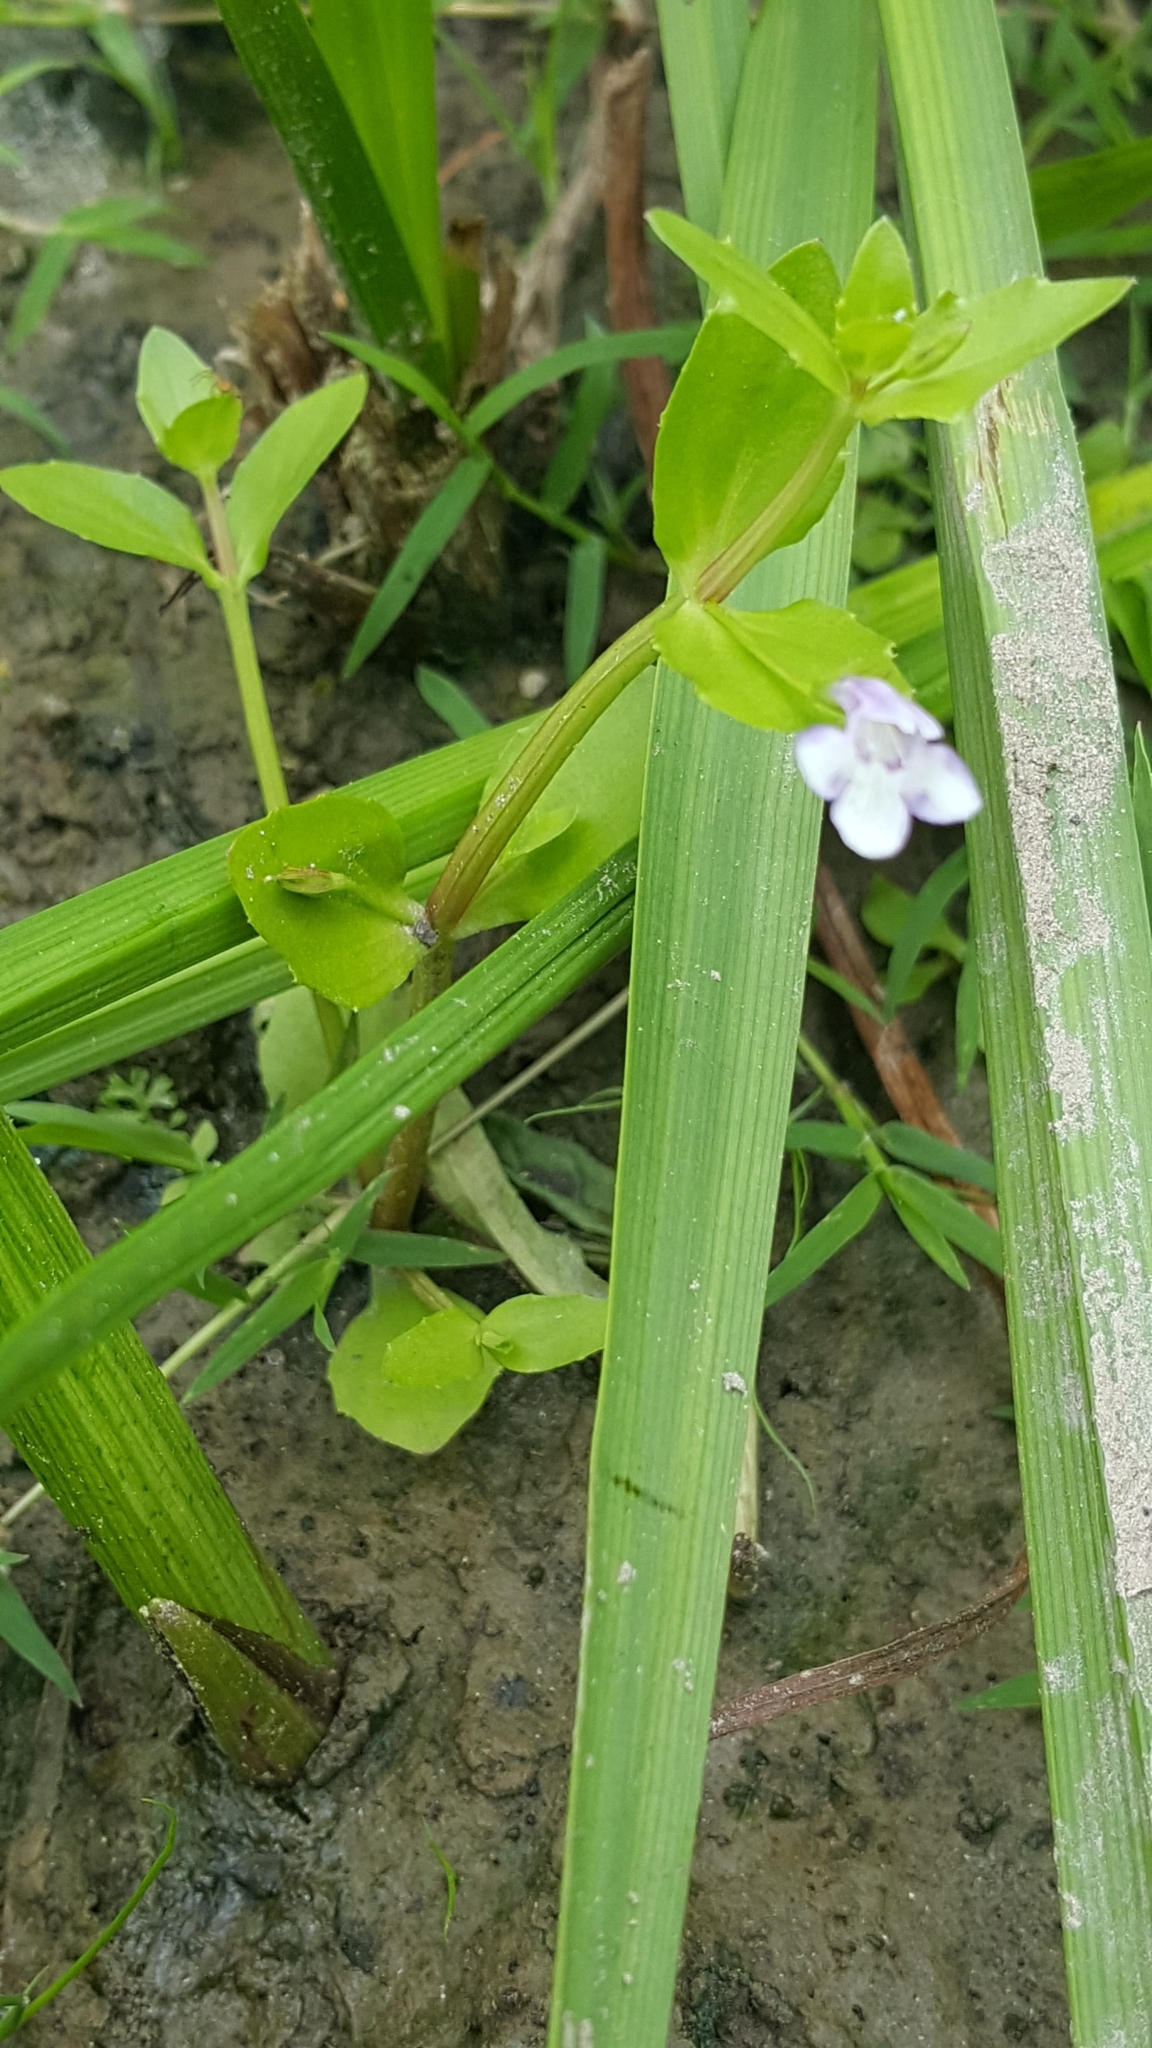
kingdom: Plantae
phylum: Tracheophyta
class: Magnoliopsida
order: Lamiales
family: Linderniaceae
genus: Lindernia
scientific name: Lindernia dubia
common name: Annual false pimpernel
